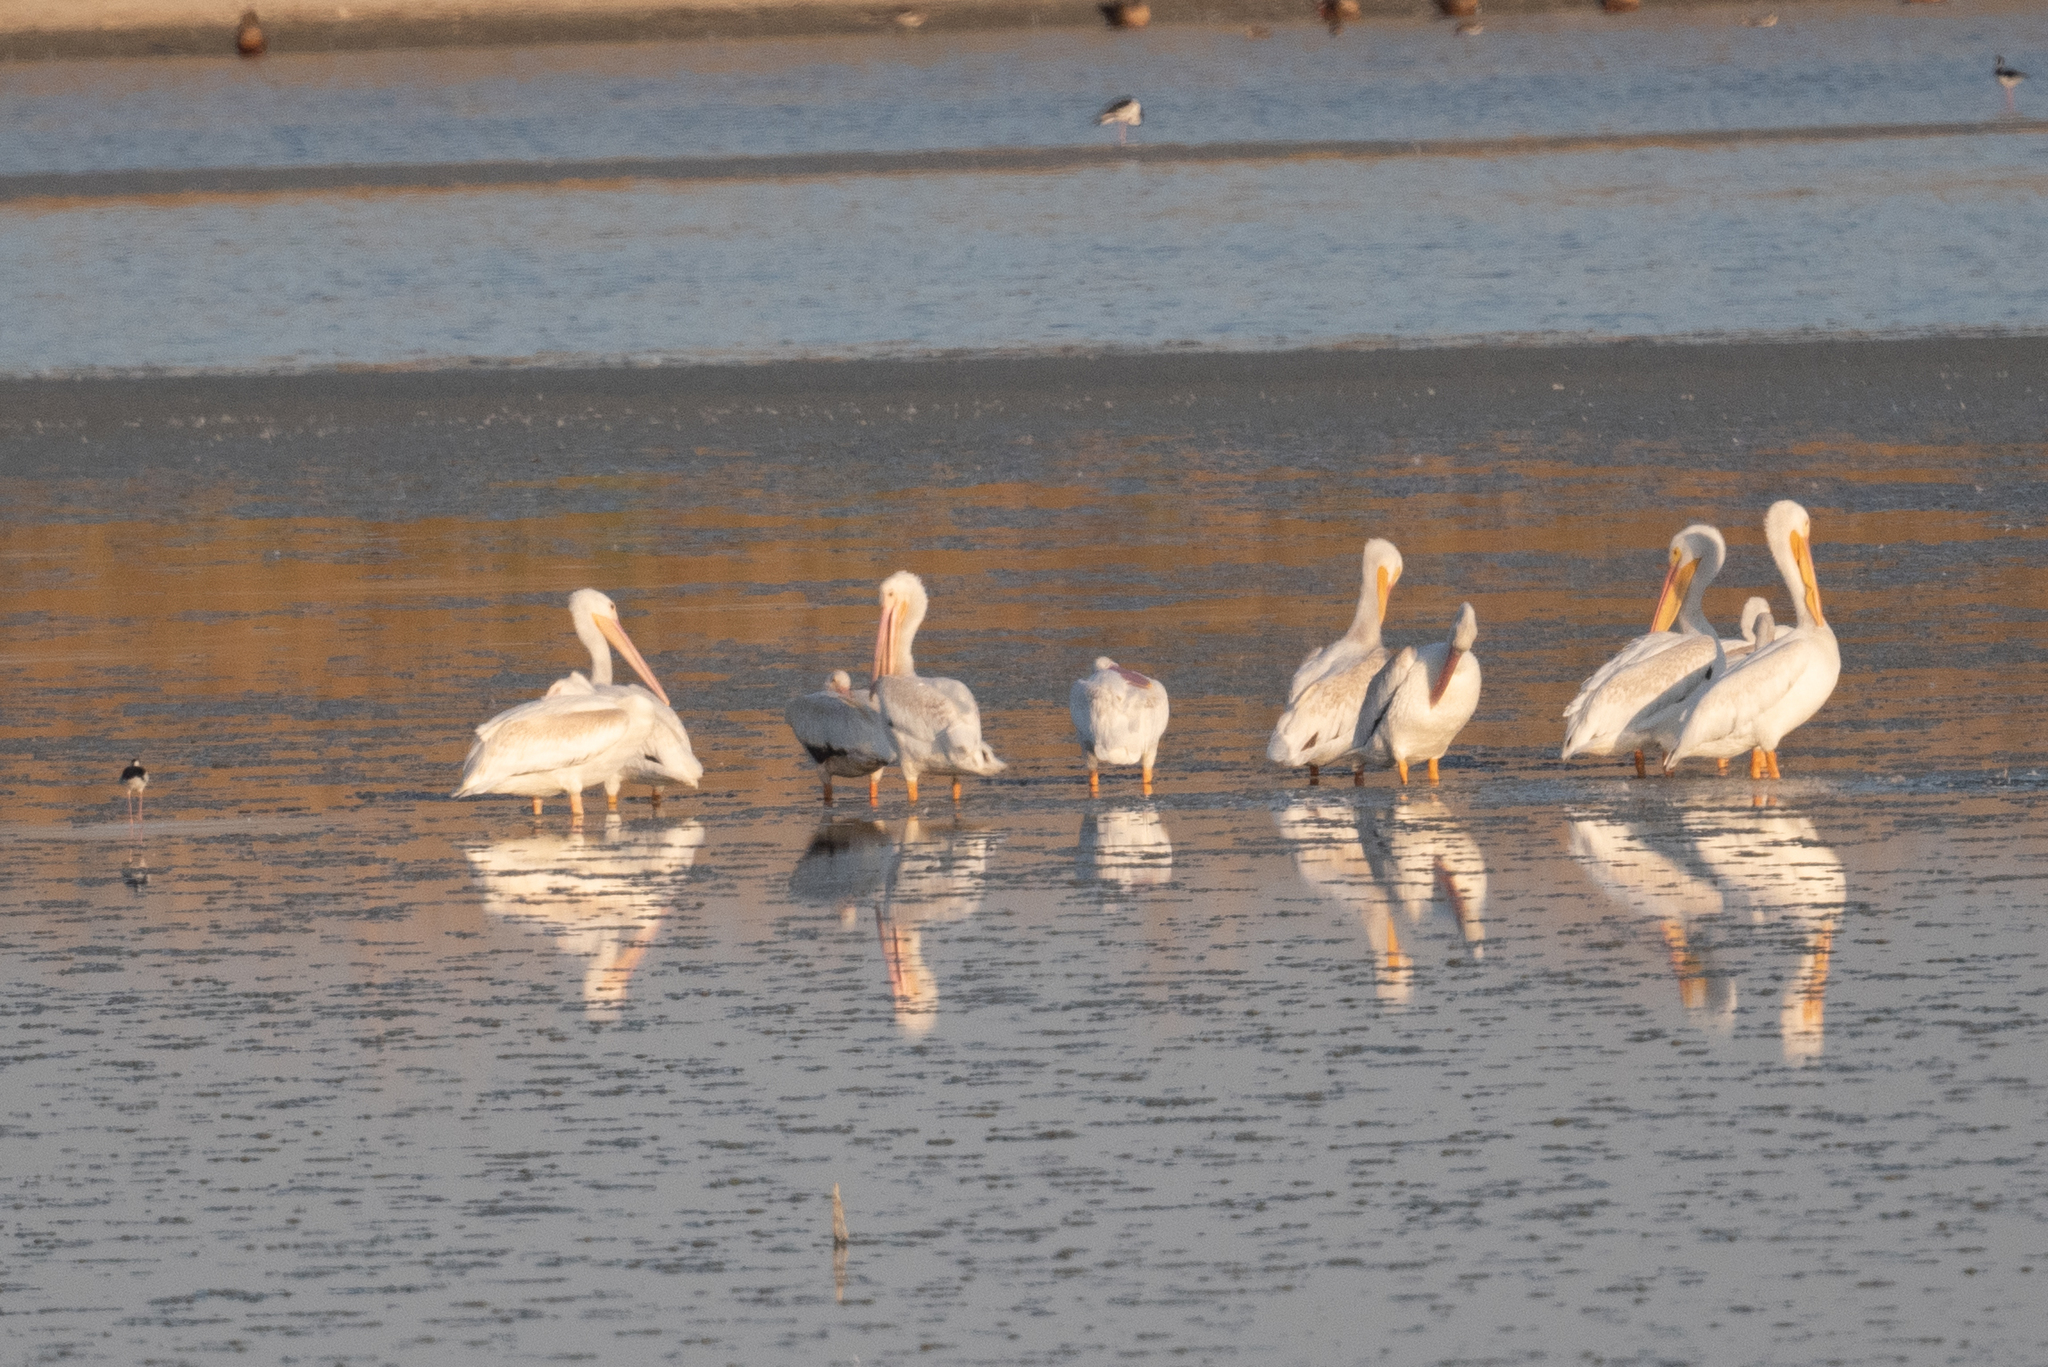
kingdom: Animalia
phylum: Chordata
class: Aves
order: Pelecaniformes
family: Pelecanidae
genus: Pelecanus
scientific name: Pelecanus erythrorhynchos
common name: American white pelican
